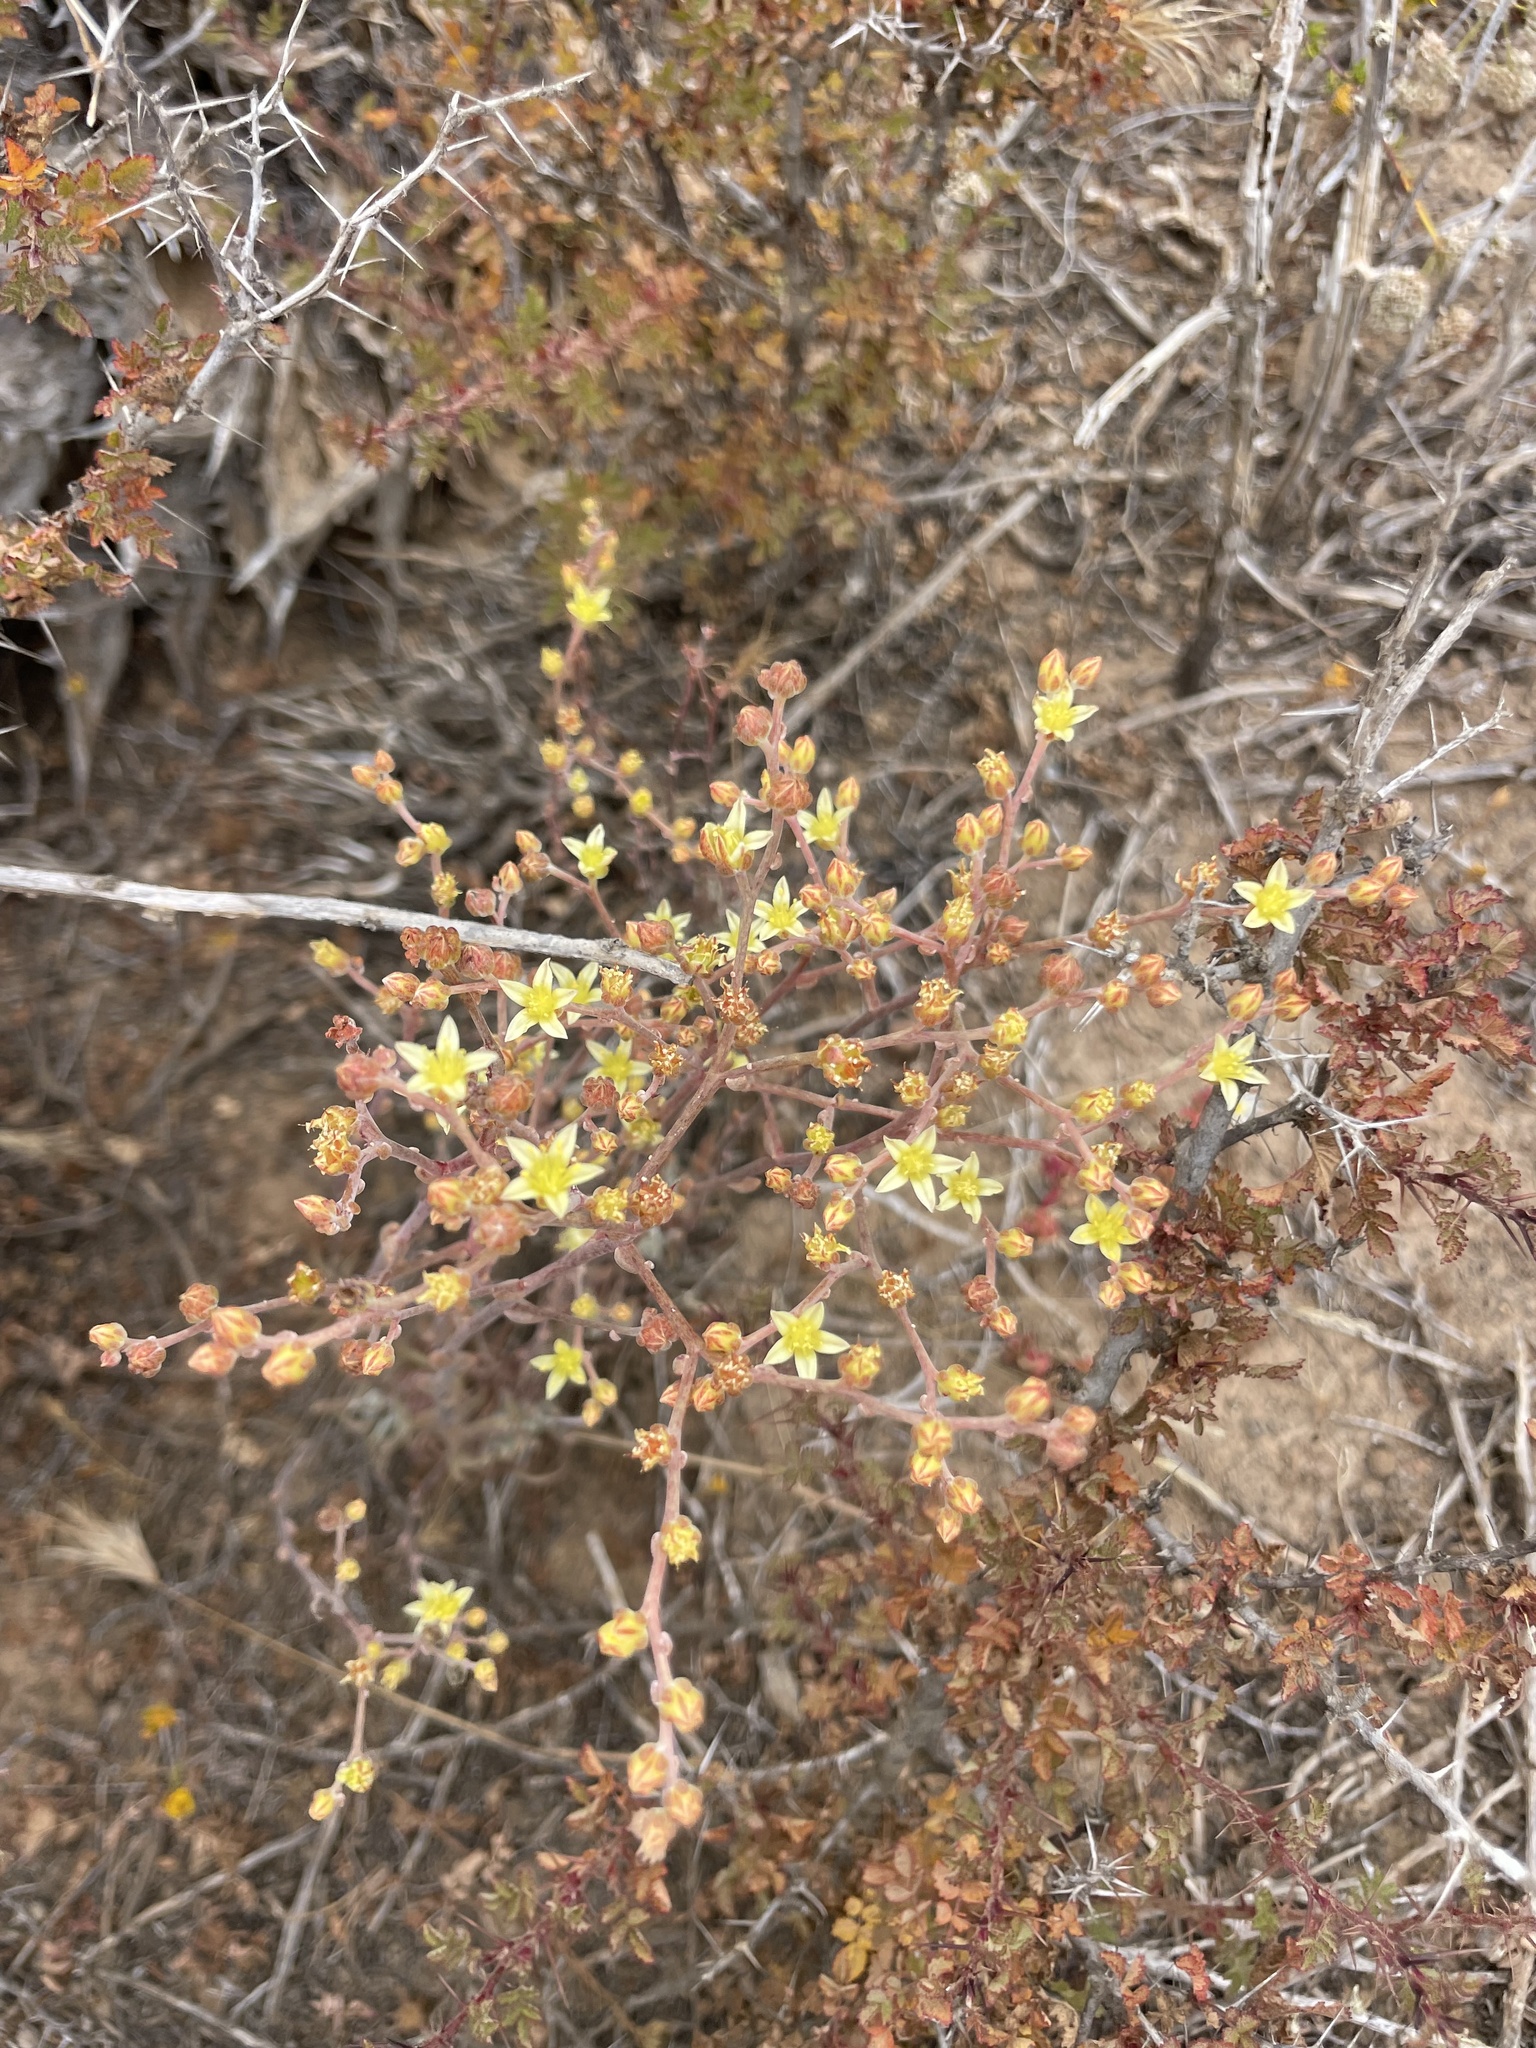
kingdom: Plantae
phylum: Tracheophyta
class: Magnoliopsida
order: Saxifragales
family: Crassulaceae
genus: Dudleya
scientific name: Dudleya attenuata
